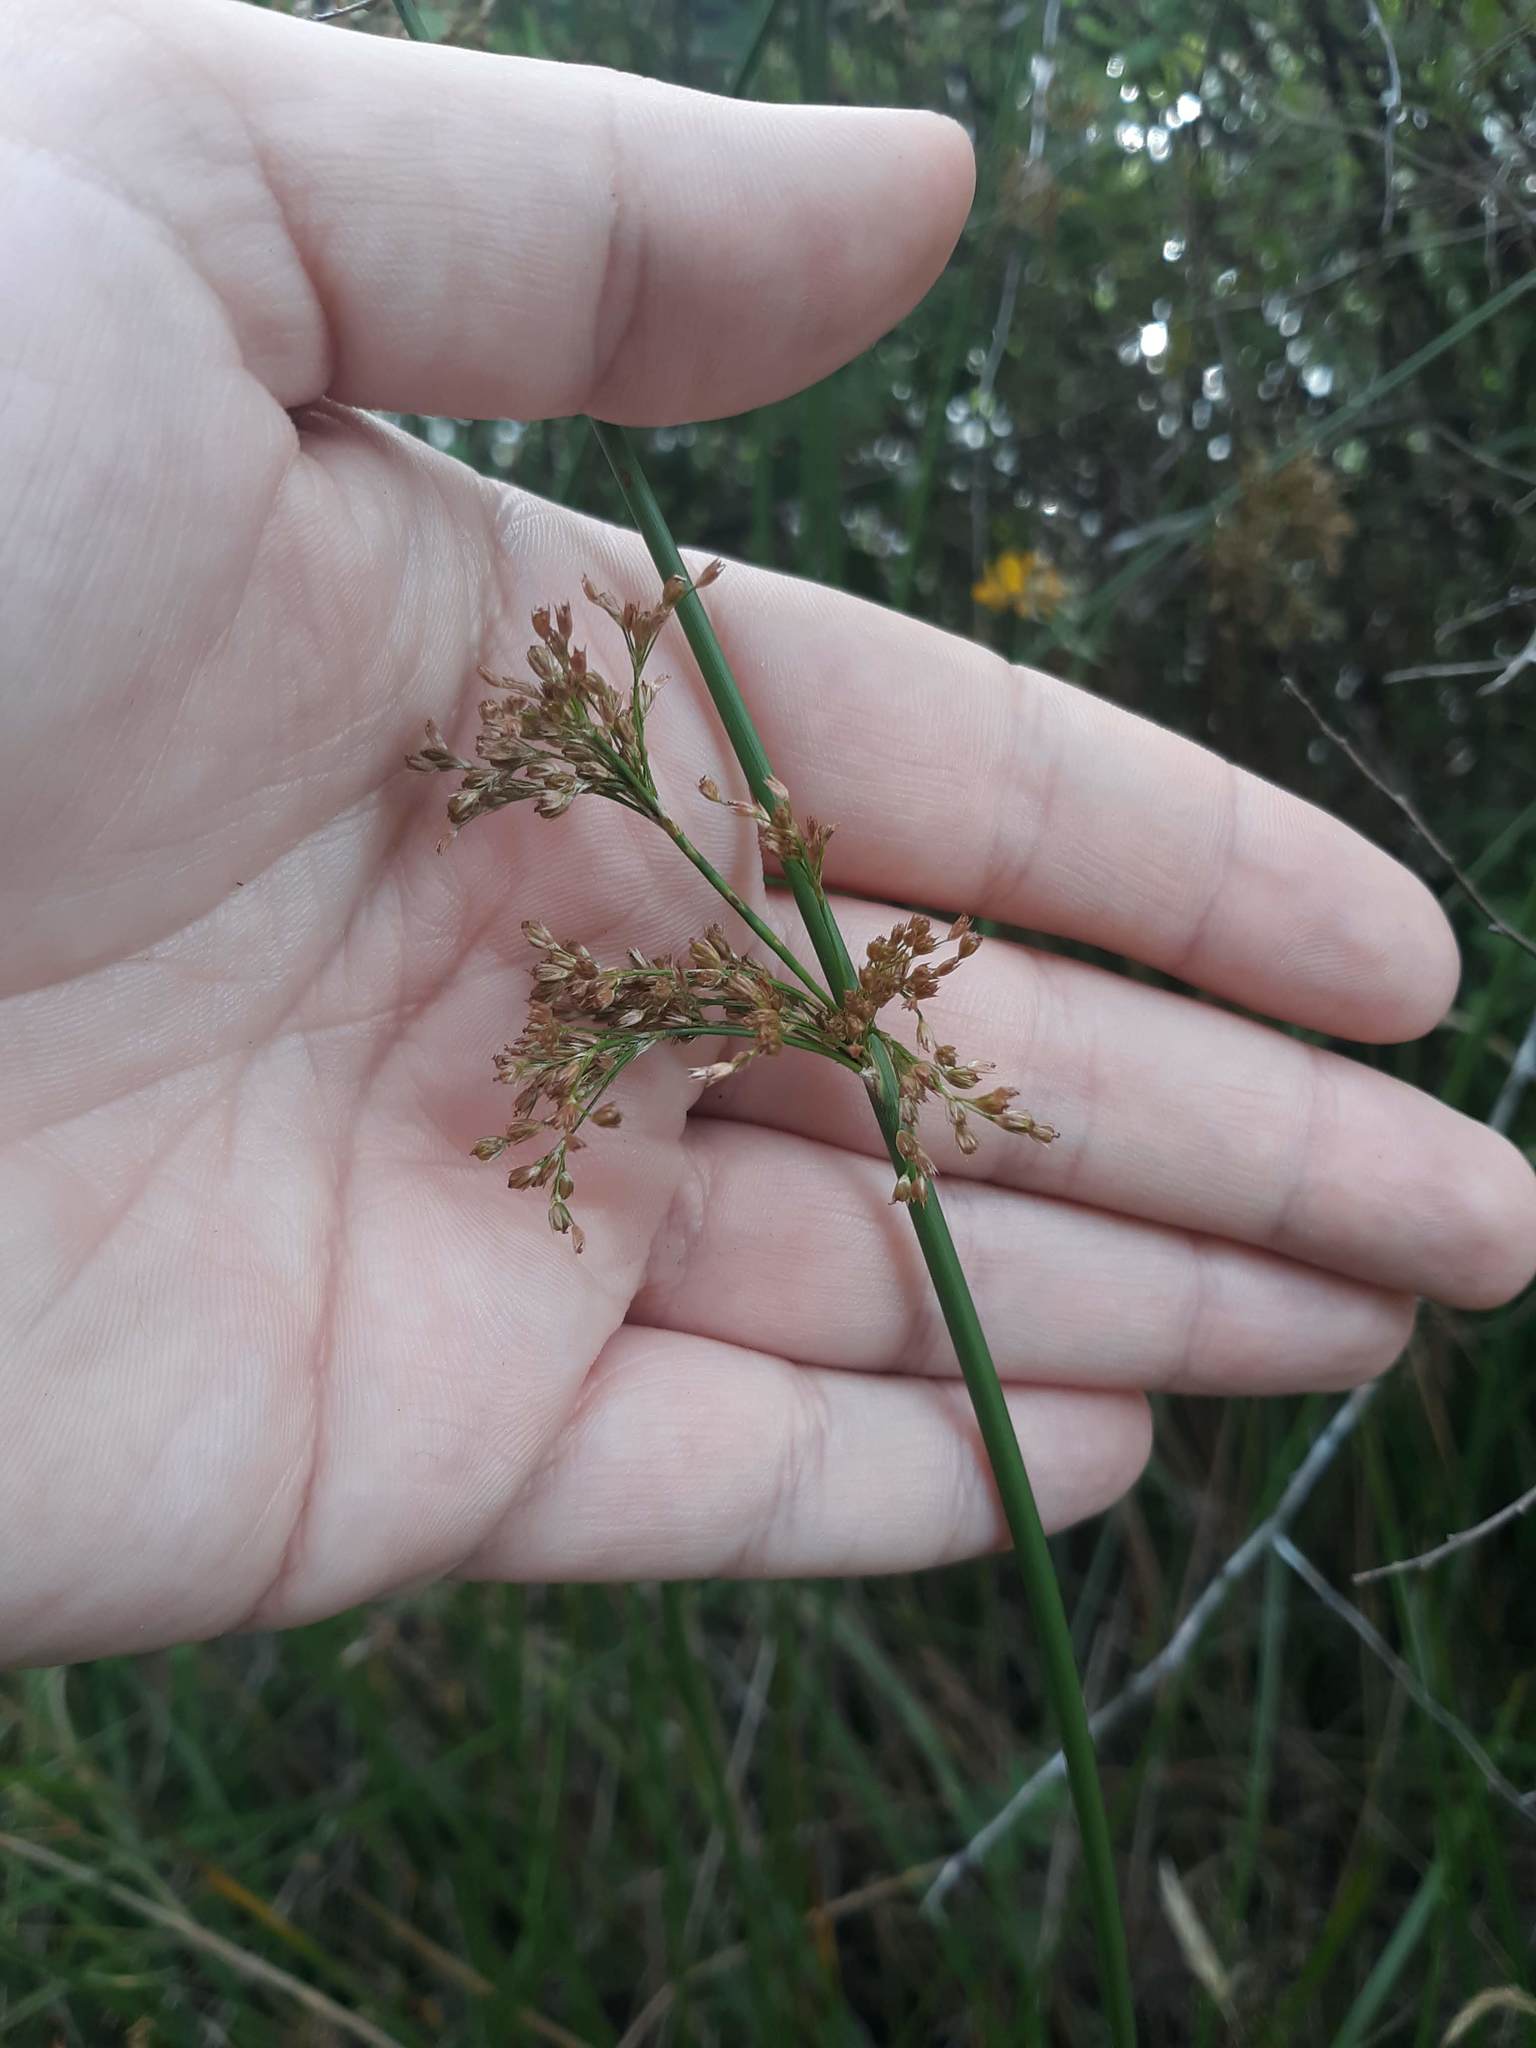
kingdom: Plantae
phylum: Tracheophyta
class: Liliopsida
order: Poales
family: Juncaceae
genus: Juncus
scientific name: Juncus effusus
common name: Soft rush
